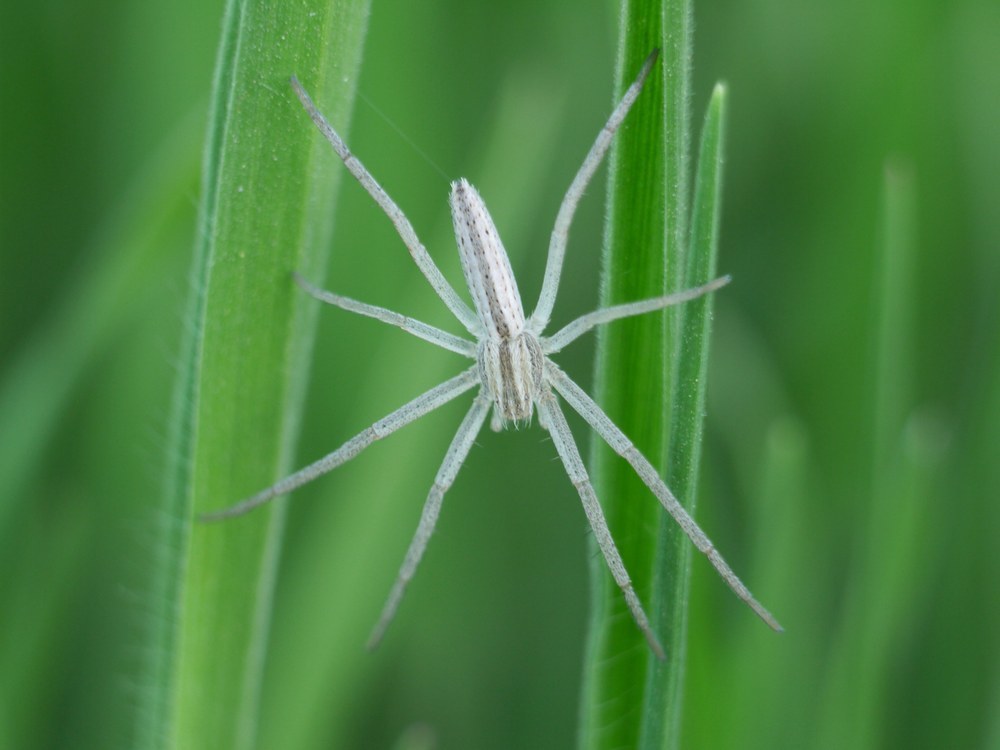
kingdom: Animalia
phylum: Arthropoda
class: Arachnida
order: Araneae
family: Philodromidae
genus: Tibellus
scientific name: Tibellus oblongus
